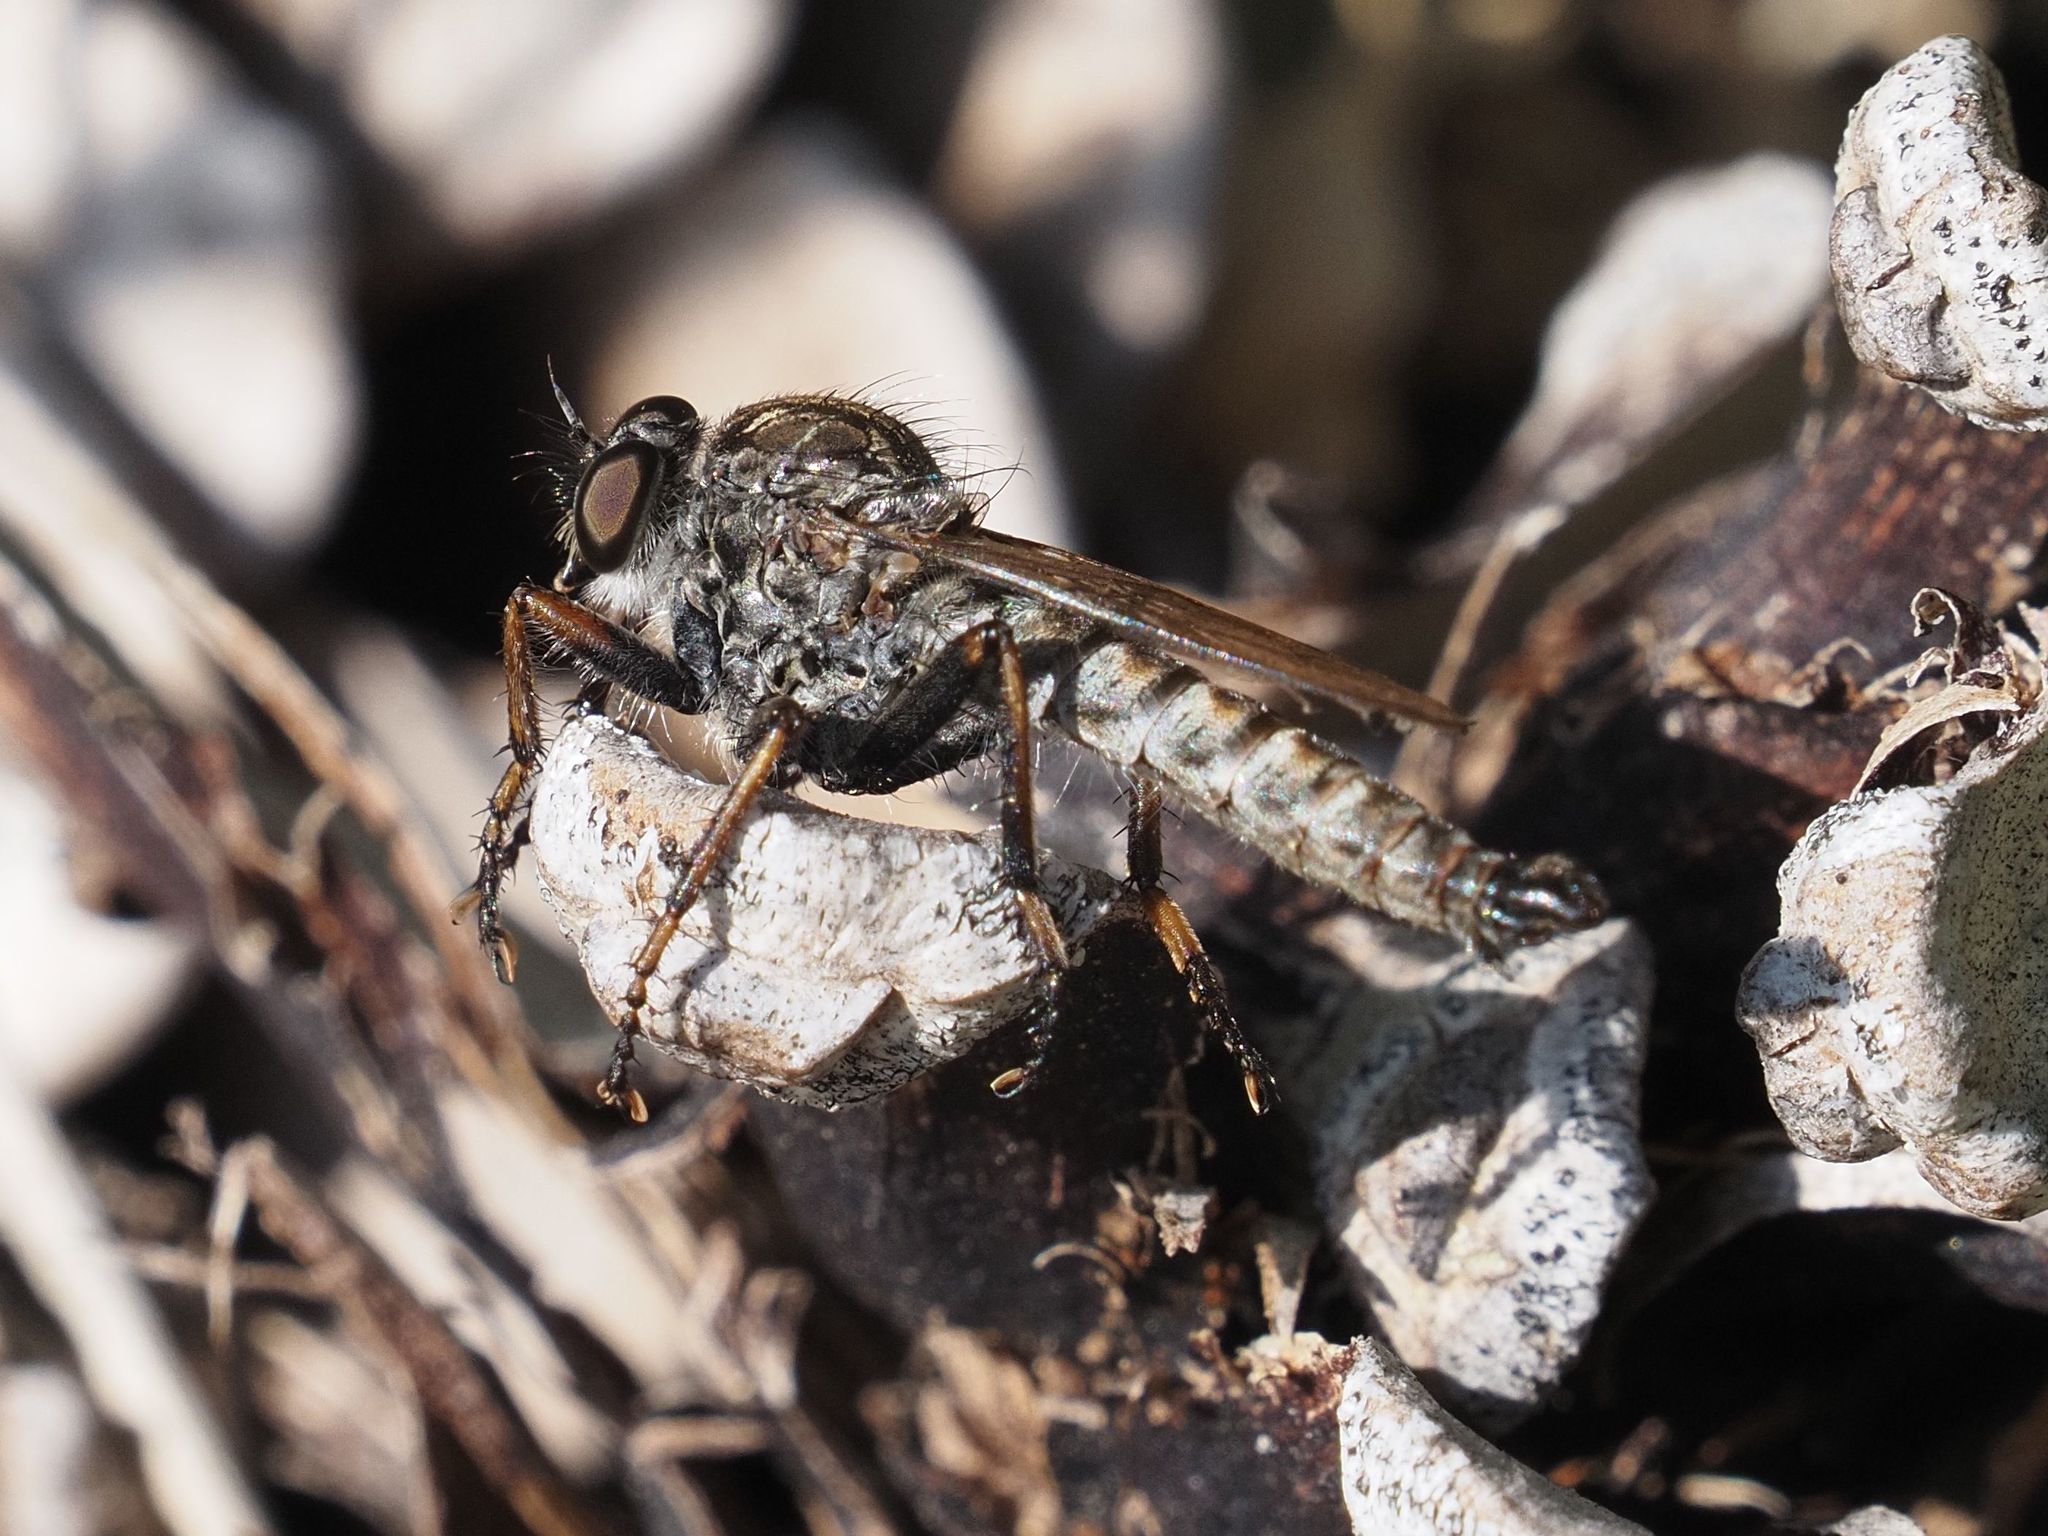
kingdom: Animalia
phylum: Arthropoda
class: Insecta
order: Diptera
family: Asilidae
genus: Machimus
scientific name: Machimus atricapillus
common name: Kite-tailed robberfly
